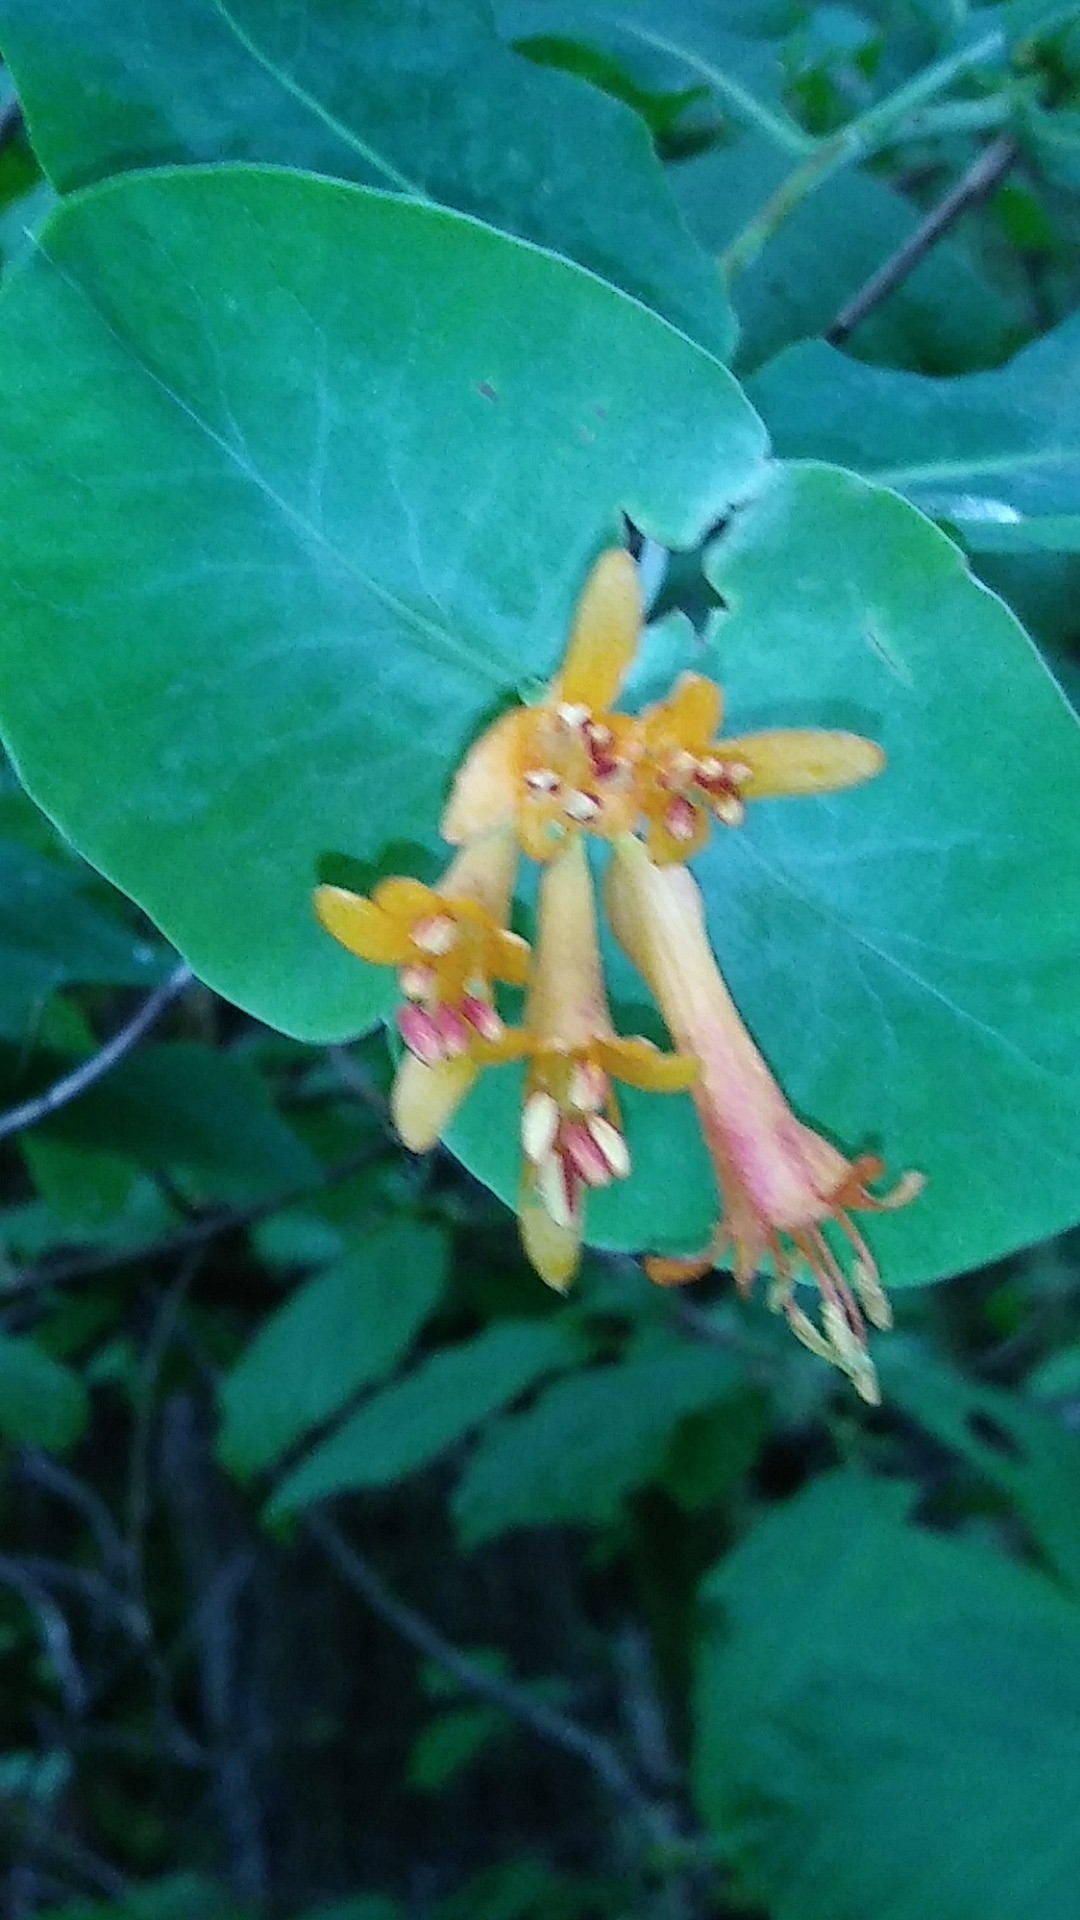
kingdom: Plantae
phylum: Tracheophyta
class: Magnoliopsida
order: Dipsacales
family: Caprifoliaceae
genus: Lonicera
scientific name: Lonicera ciliosa
